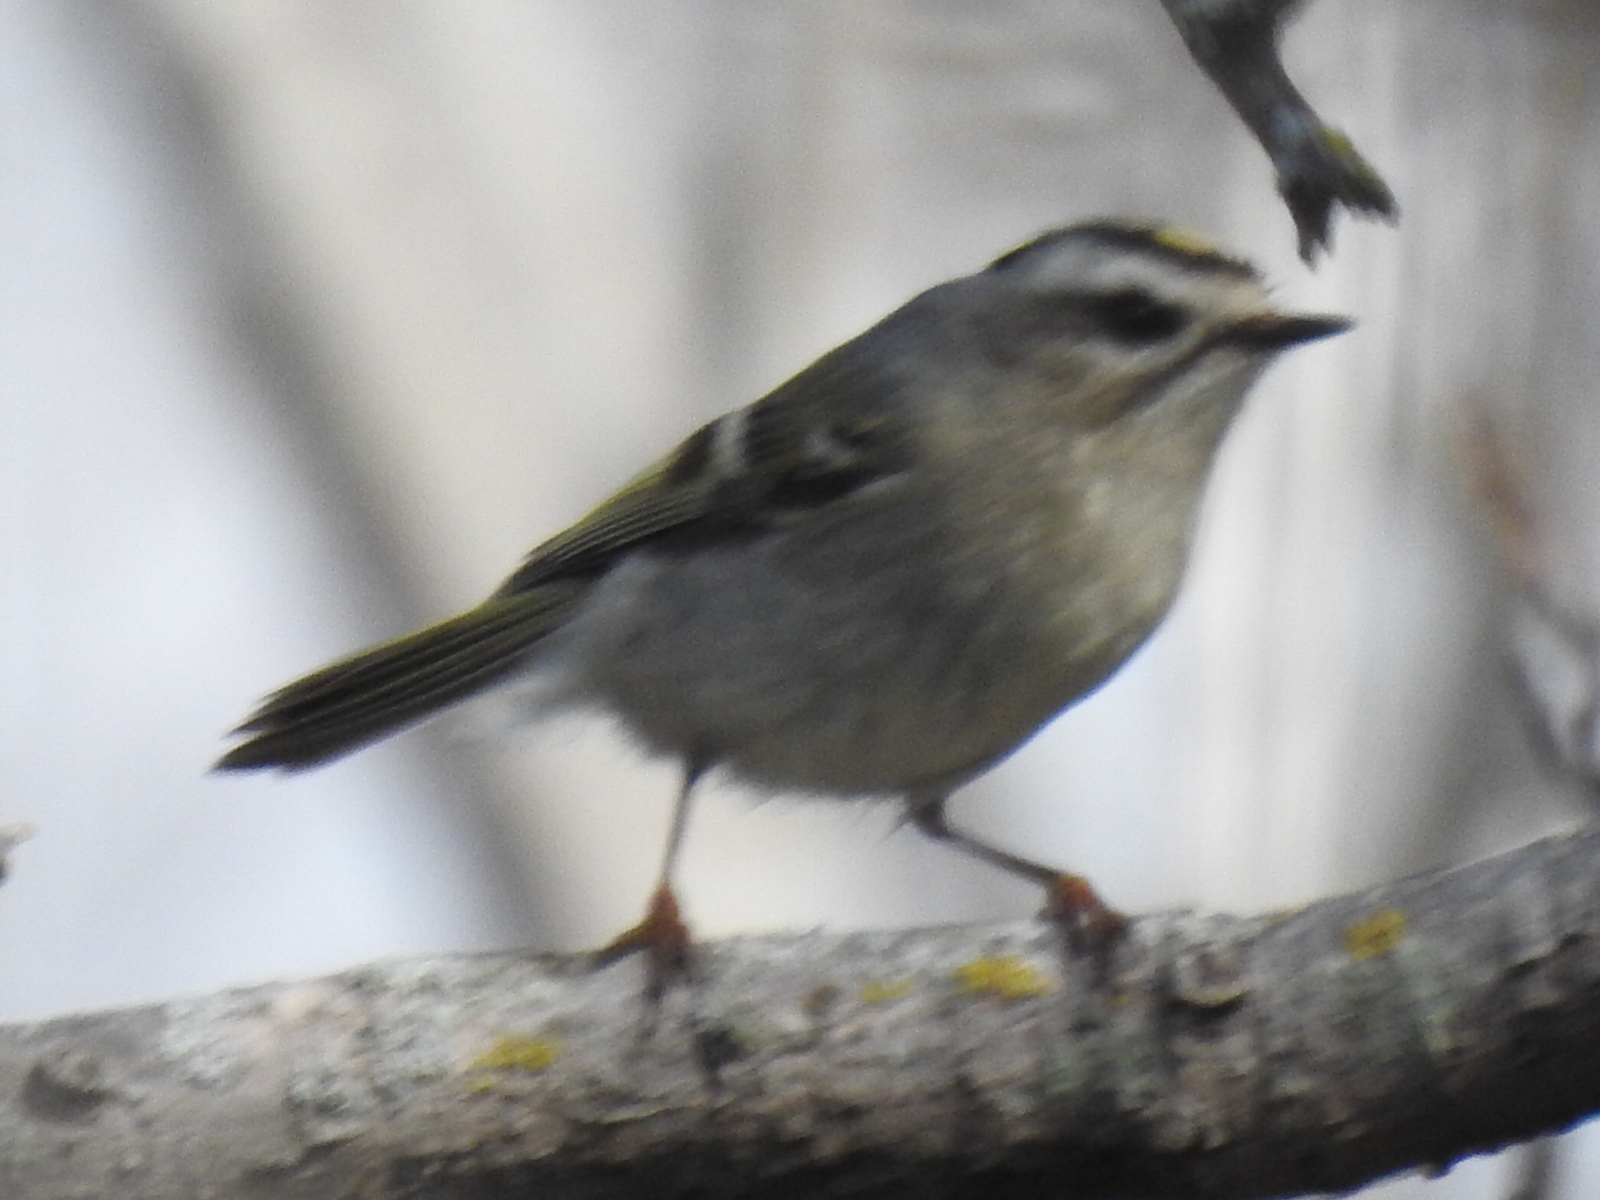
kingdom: Animalia
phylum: Chordata
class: Aves
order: Passeriformes
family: Regulidae
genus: Regulus
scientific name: Regulus satrapa
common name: Golden-crowned kinglet
